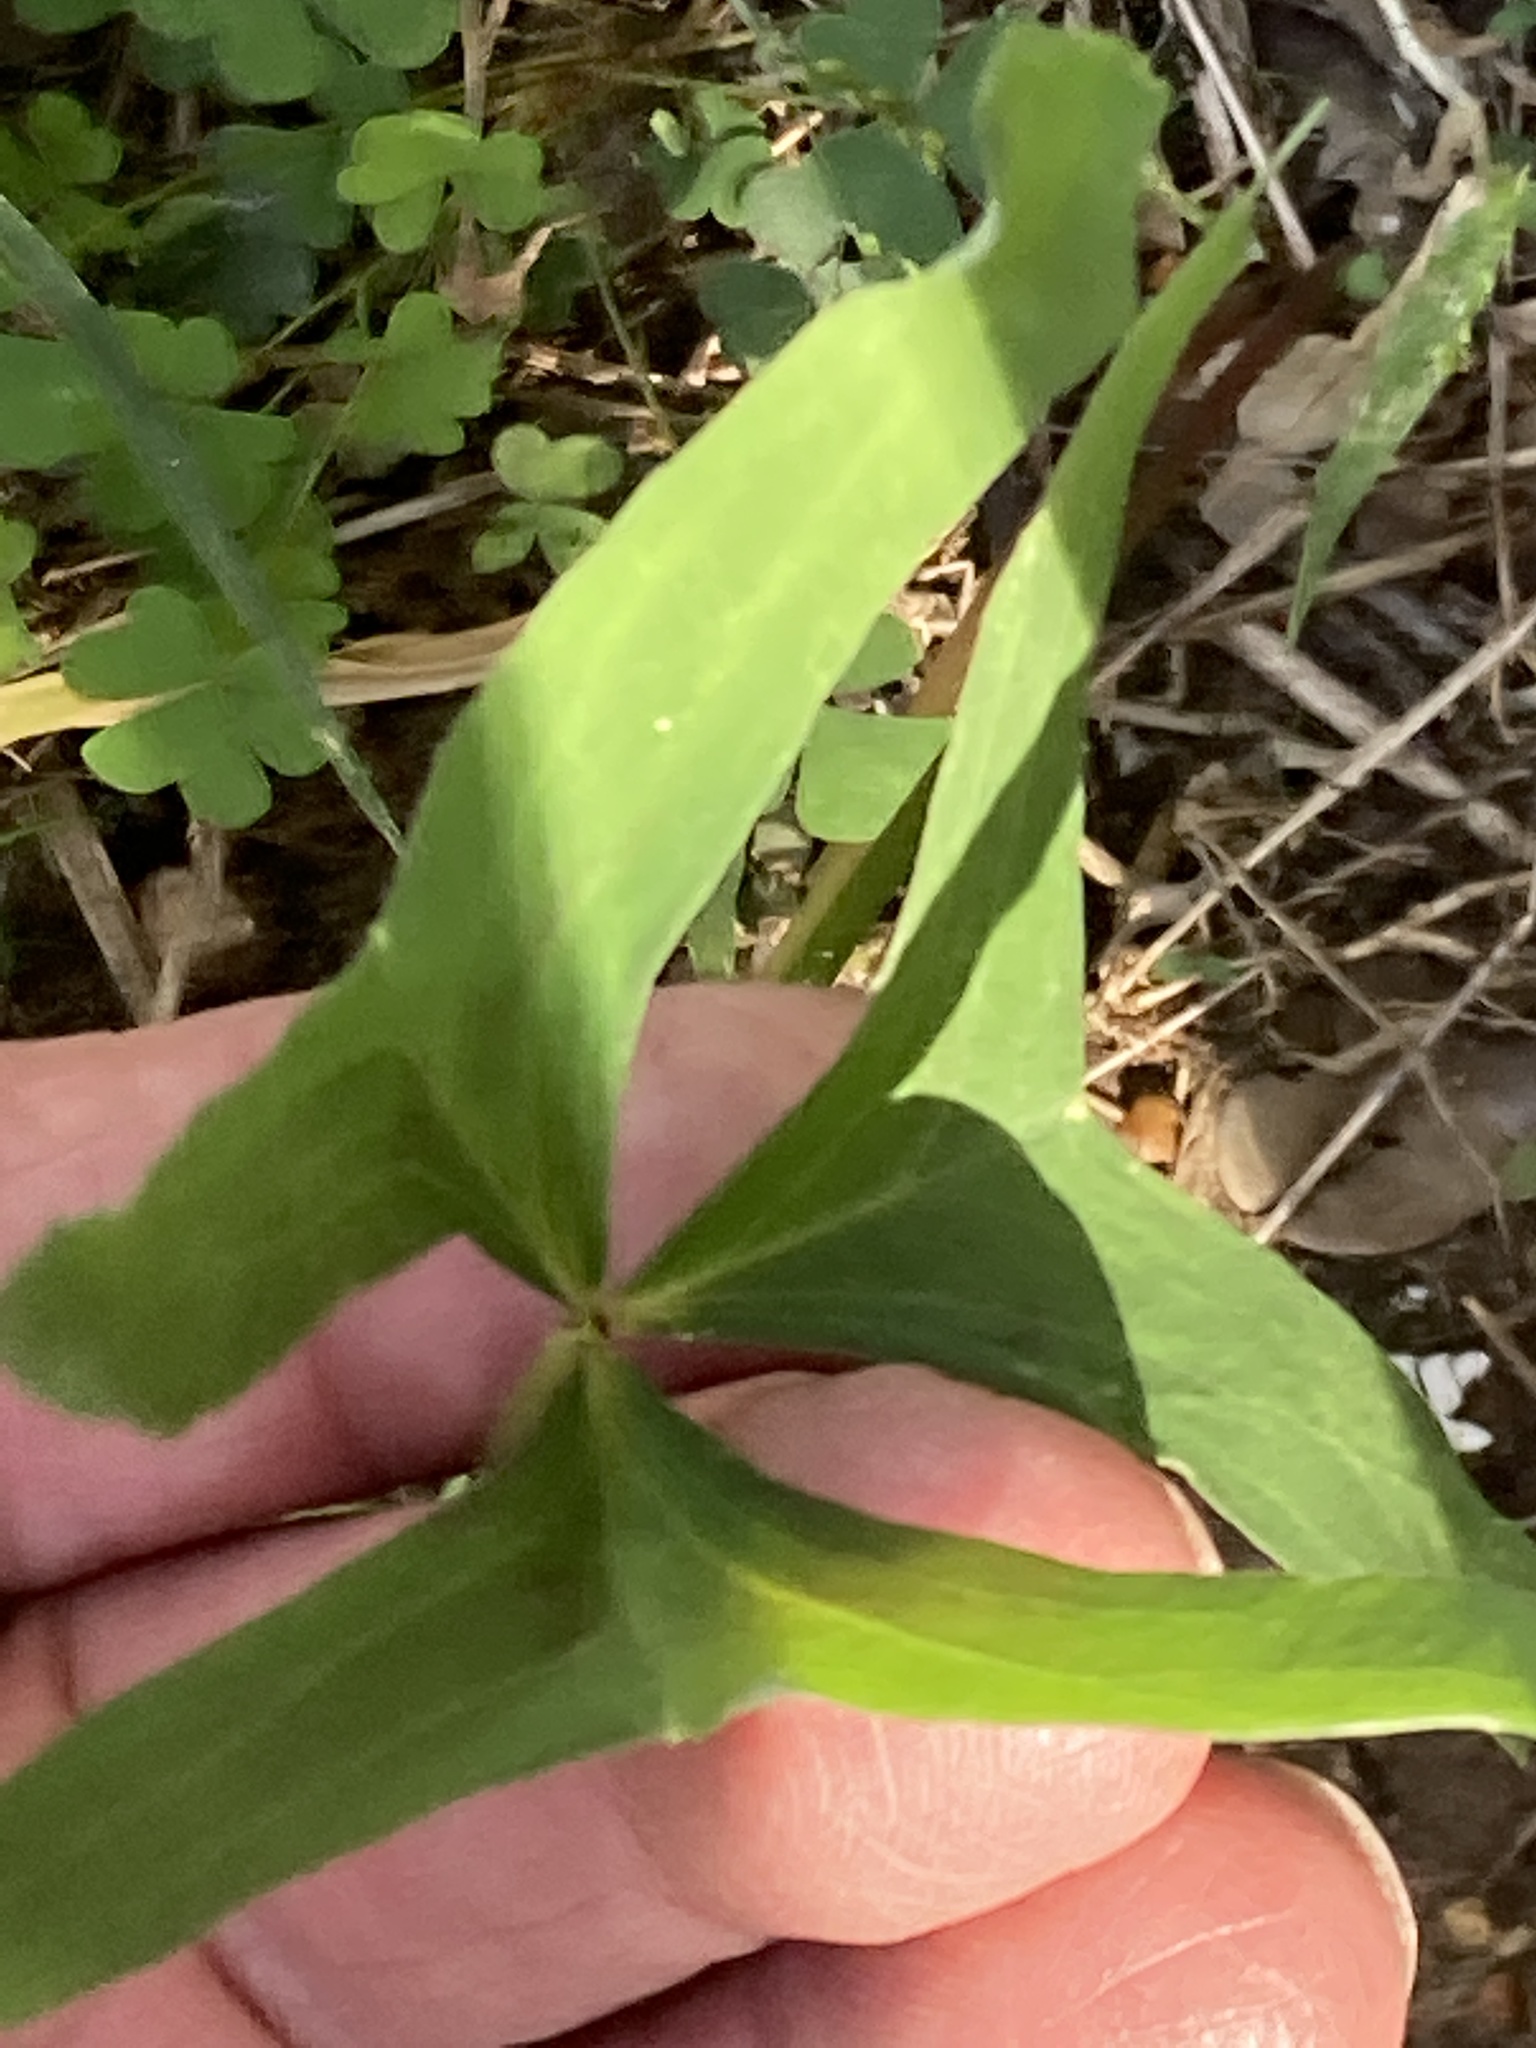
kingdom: Plantae
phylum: Tracheophyta
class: Magnoliopsida
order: Oxalidales
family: Oxalidaceae
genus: Oxalis
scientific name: Oxalis drummondii
